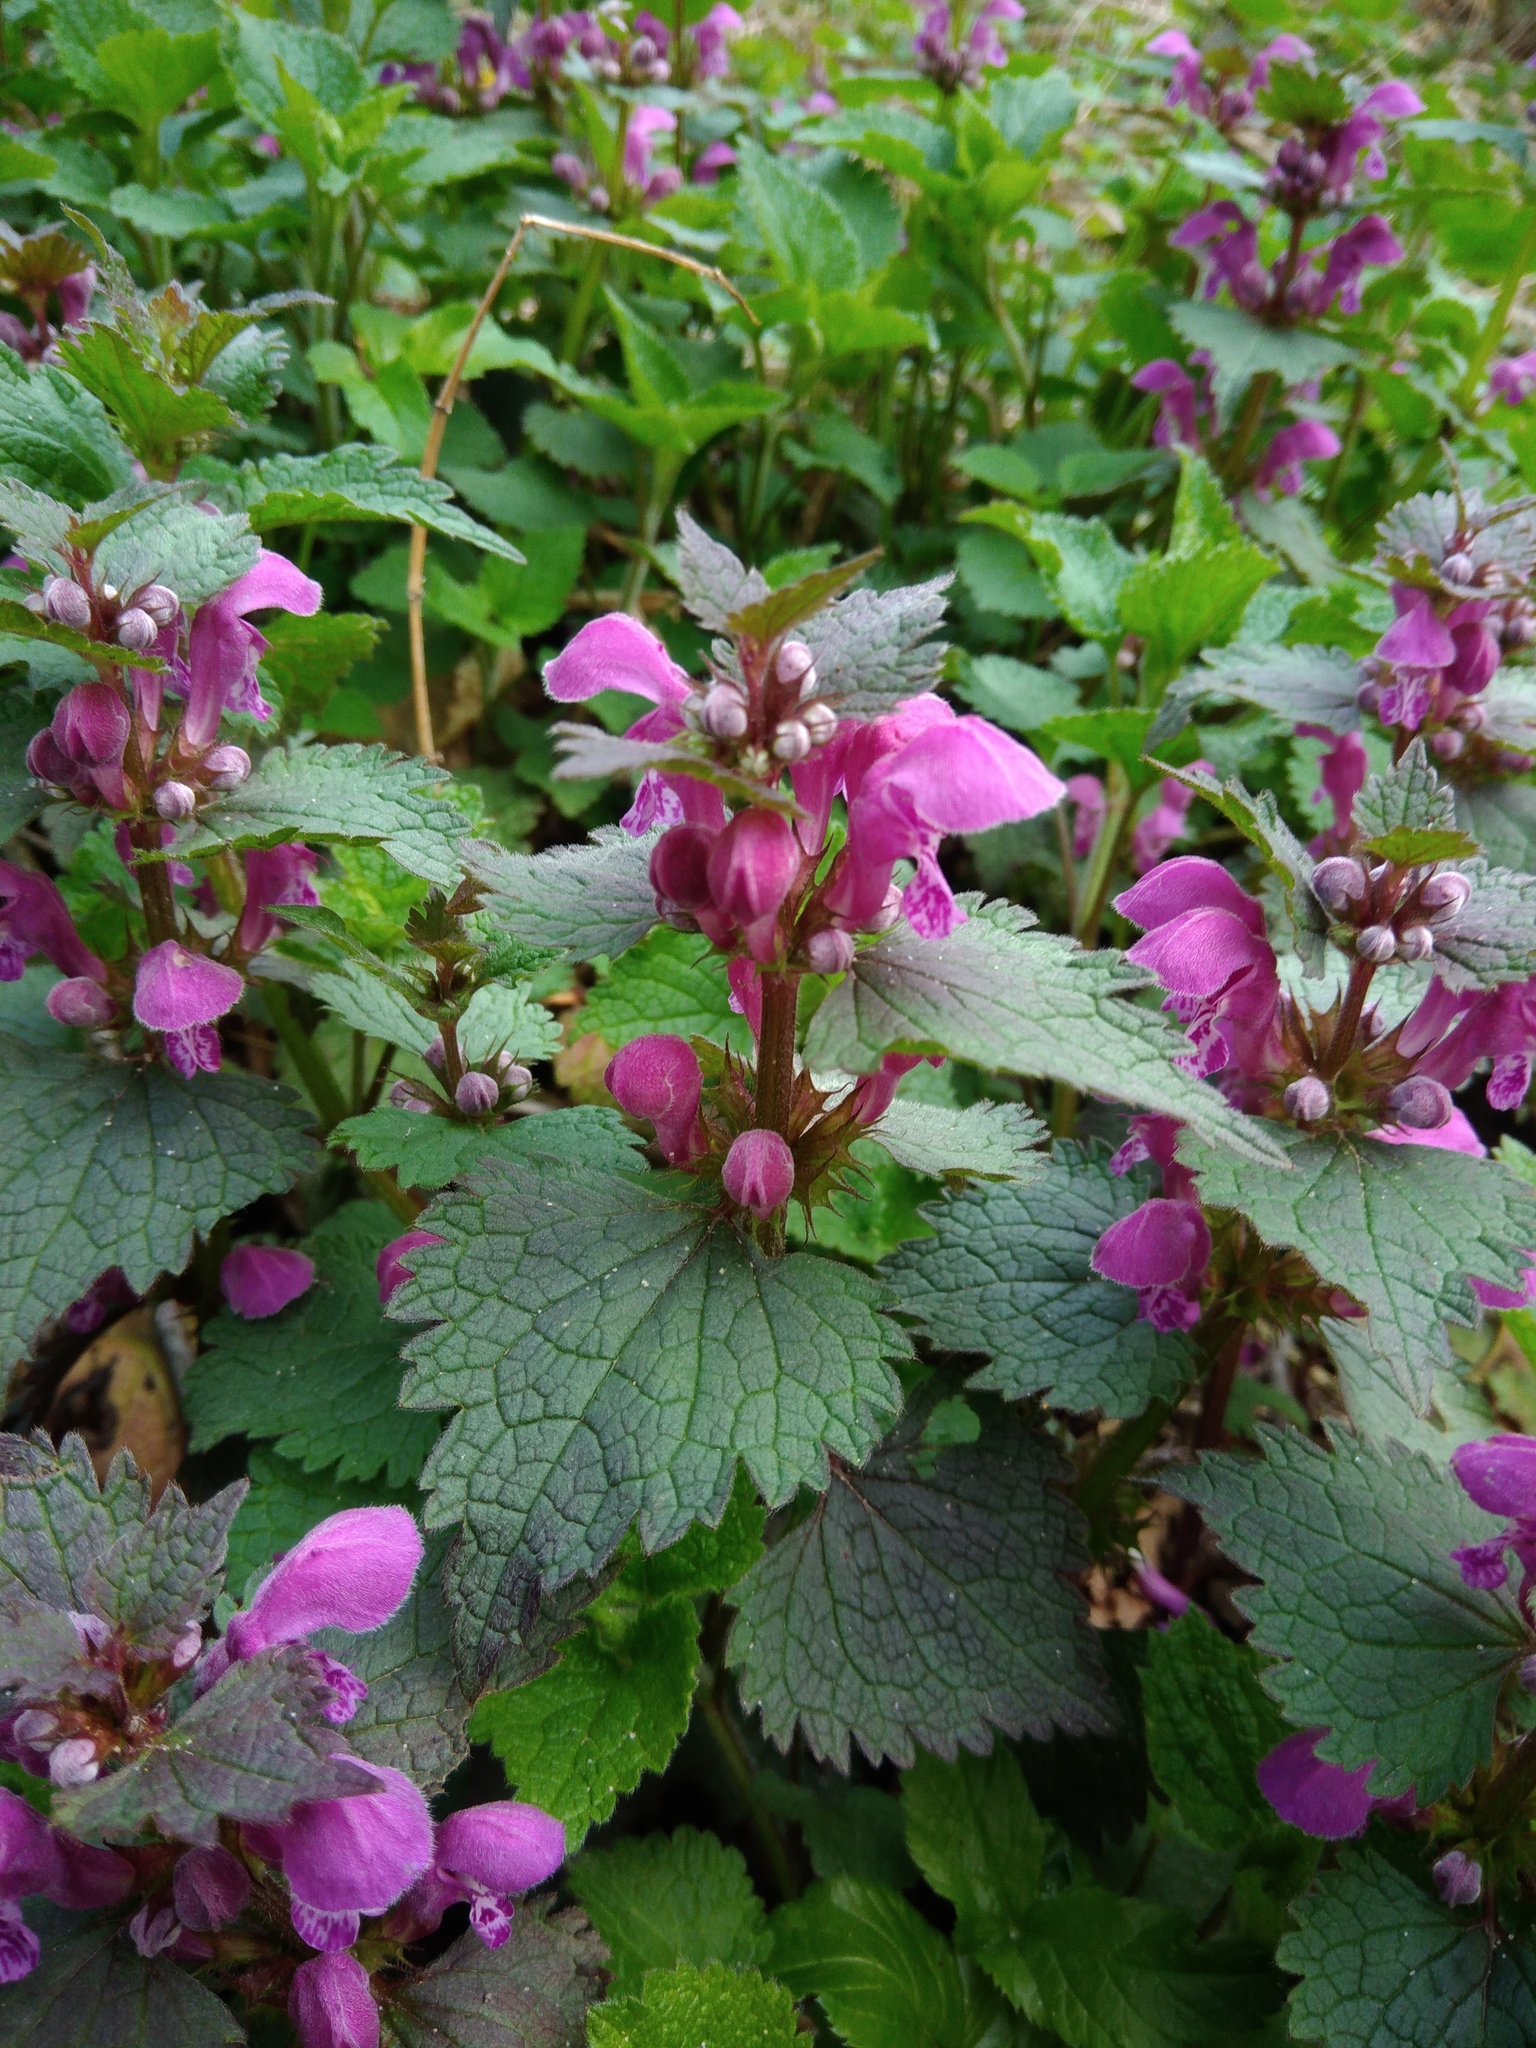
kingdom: Plantae
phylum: Tracheophyta
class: Magnoliopsida
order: Lamiales
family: Lamiaceae
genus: Lamium
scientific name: Lamium maculatum
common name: Spotted dead-nettle
